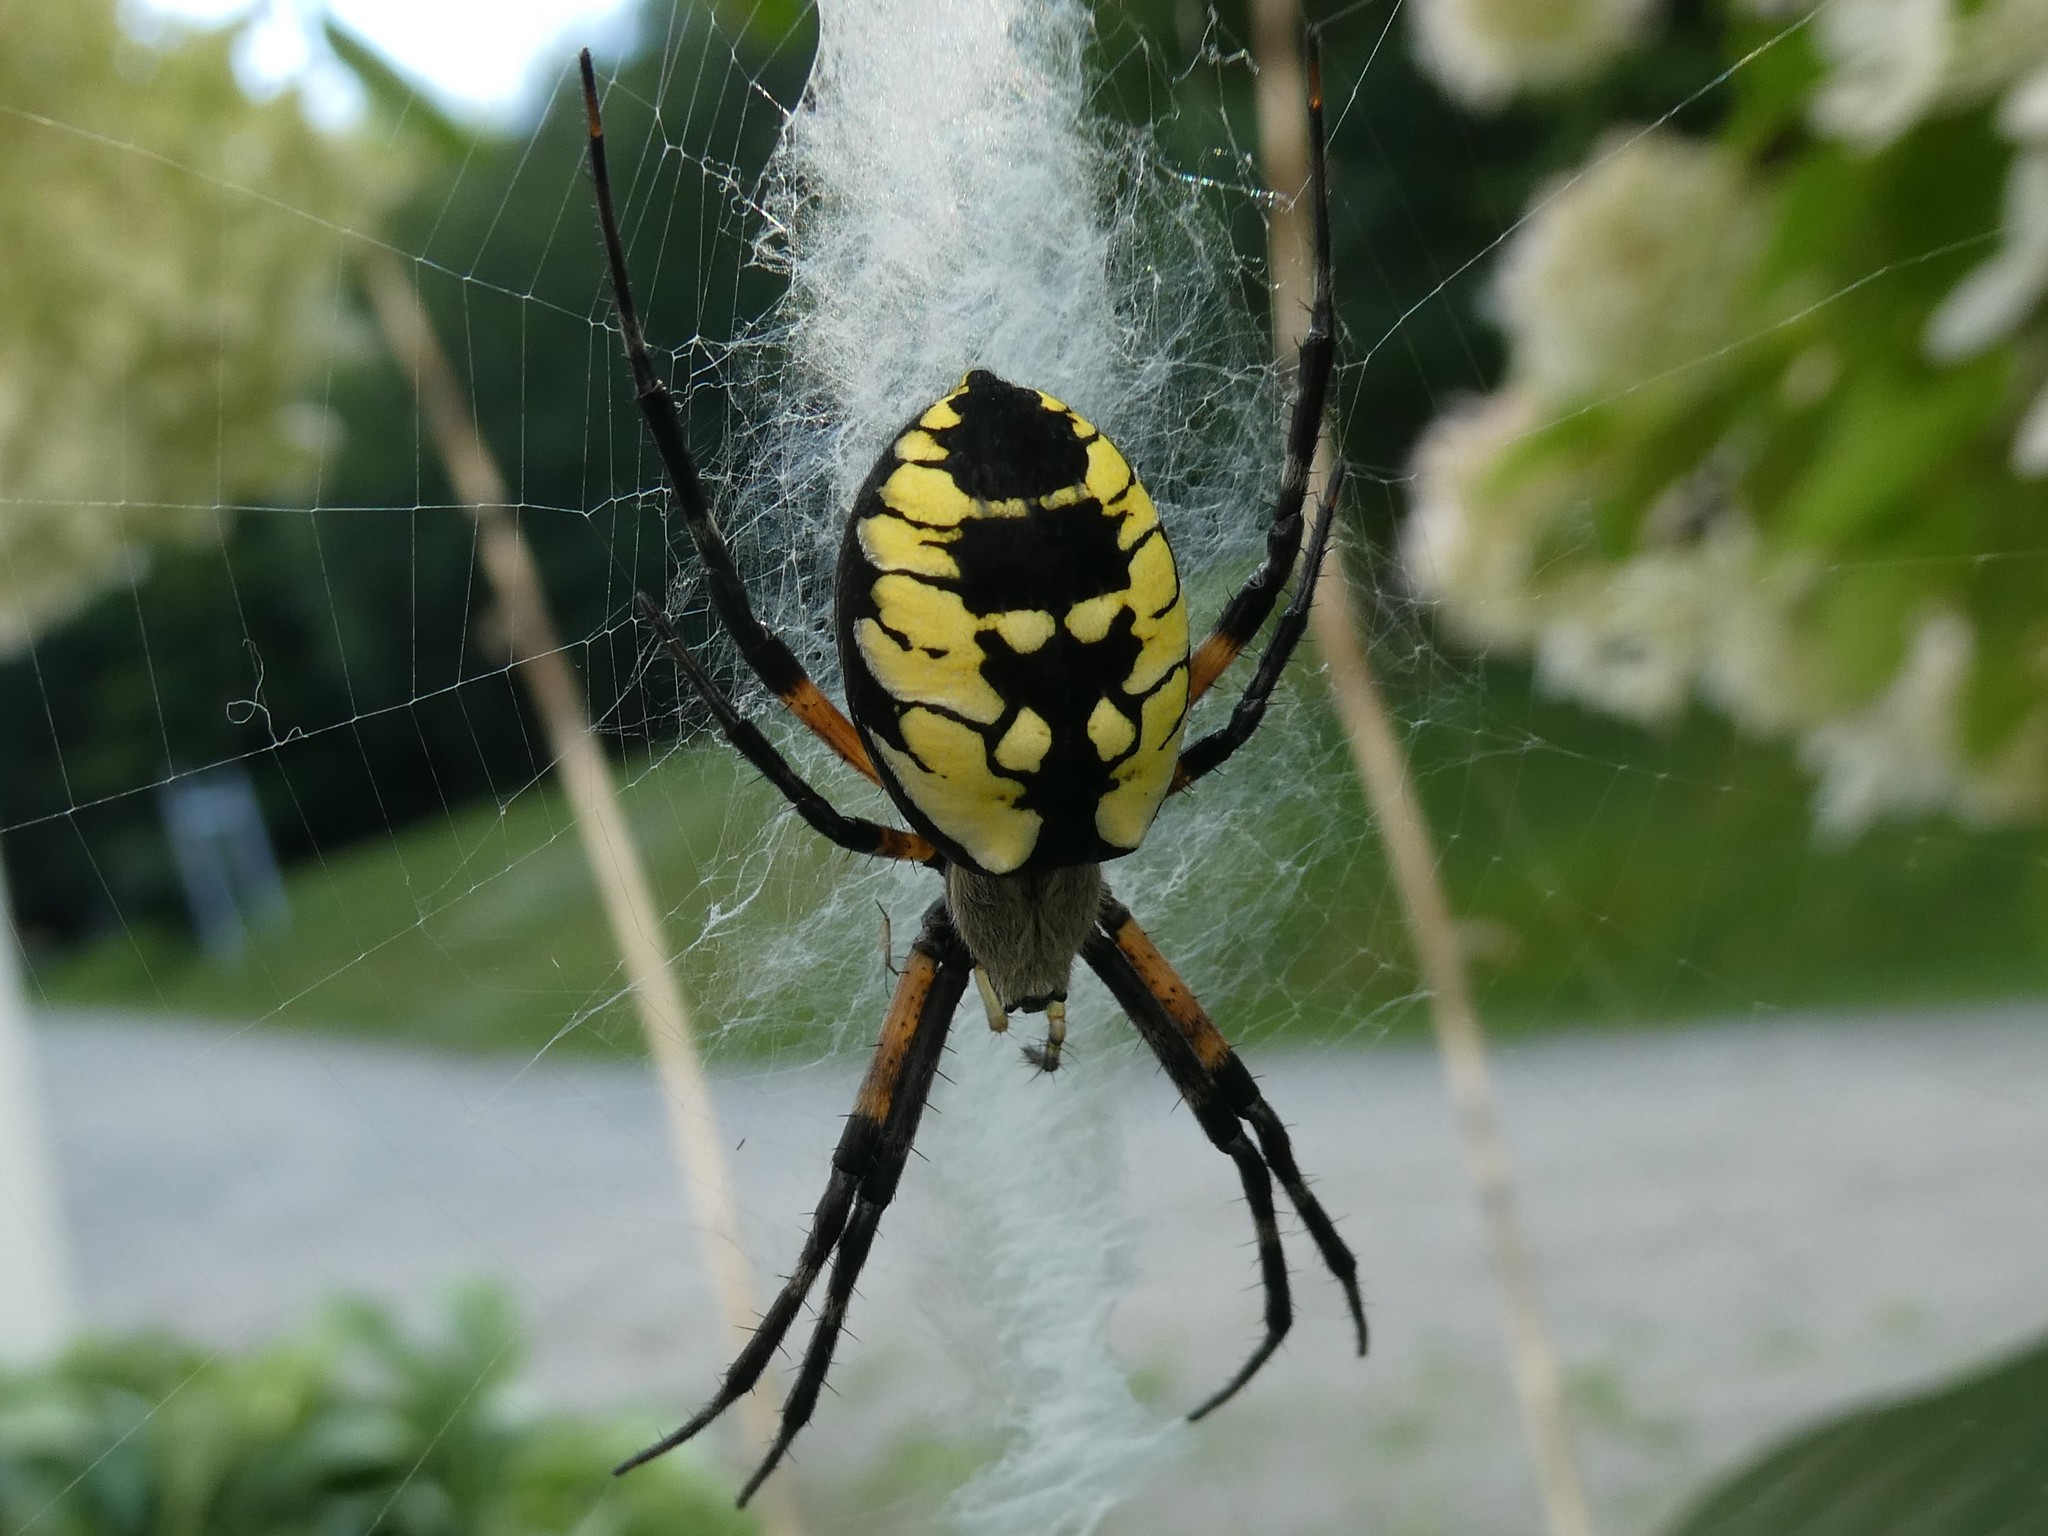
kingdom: Animalia
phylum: Arthropoda
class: Arachnida
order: Araneae
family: Araneidae
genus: Argiope
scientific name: Argiope aurantia
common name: Orb weavers
